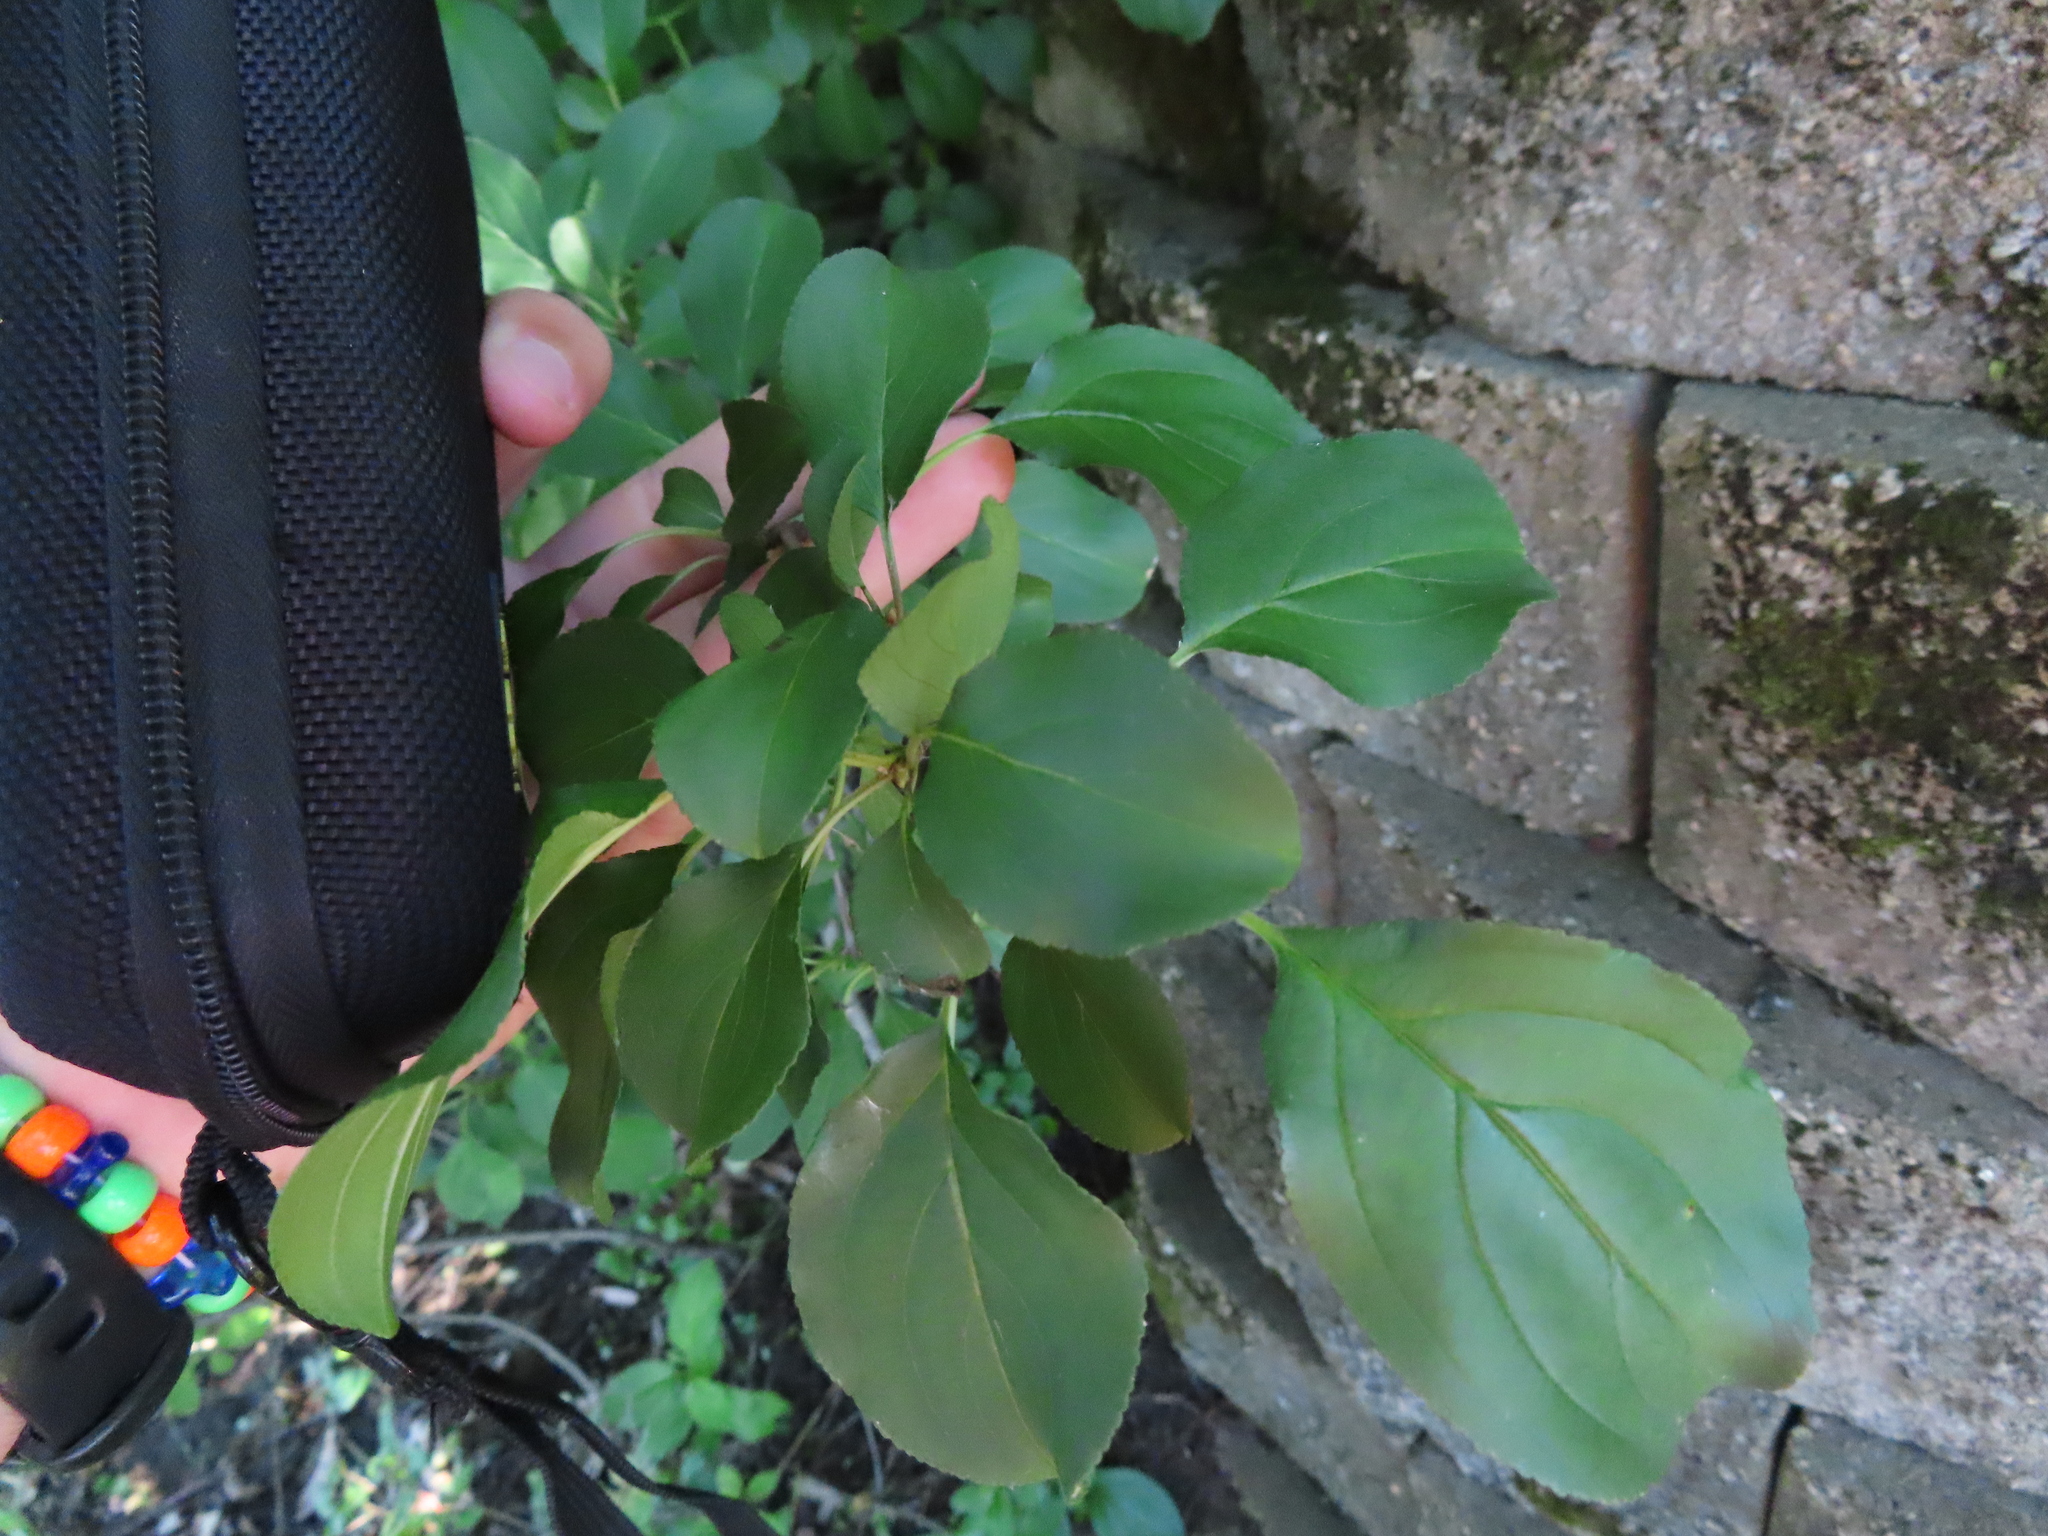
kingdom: Plantae
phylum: Tracheophyta
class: Magnoliopsida
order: Rosales
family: Rhamnaceae
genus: Rhamnus
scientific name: Rhamnus cathartica
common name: Common buckthorn
